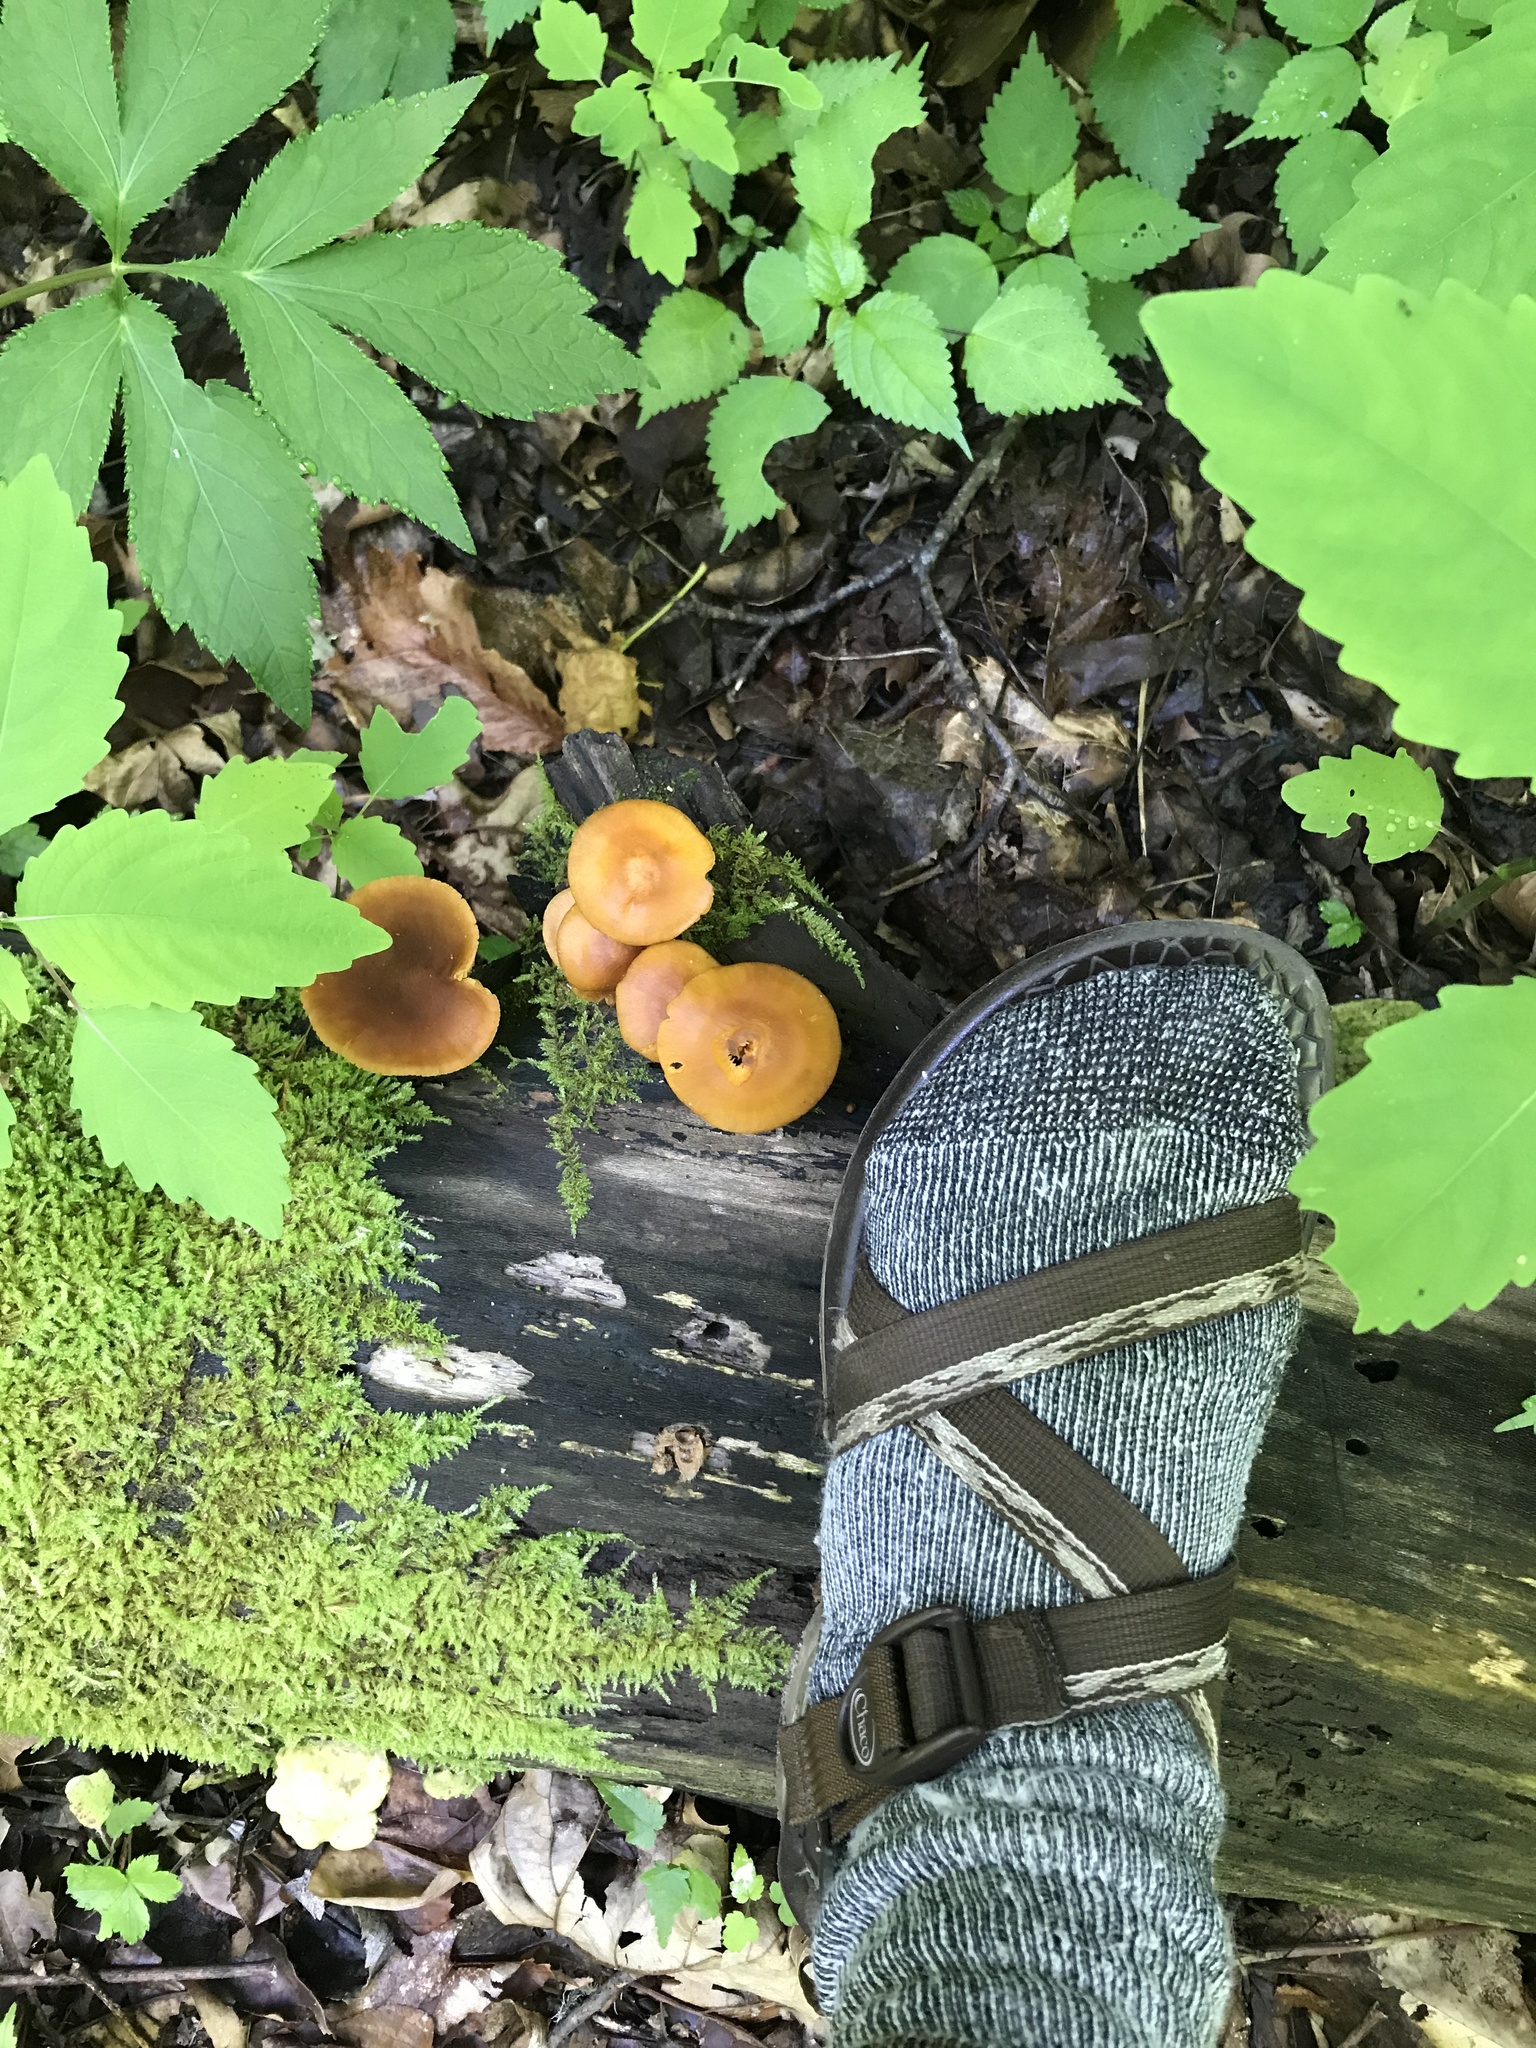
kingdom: Fungi
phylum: Basidiomycota
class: Agaricomycetes
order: Agaricales
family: Mycenaceae
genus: Xeromphalina
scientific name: Xeromphalina tenuipes
